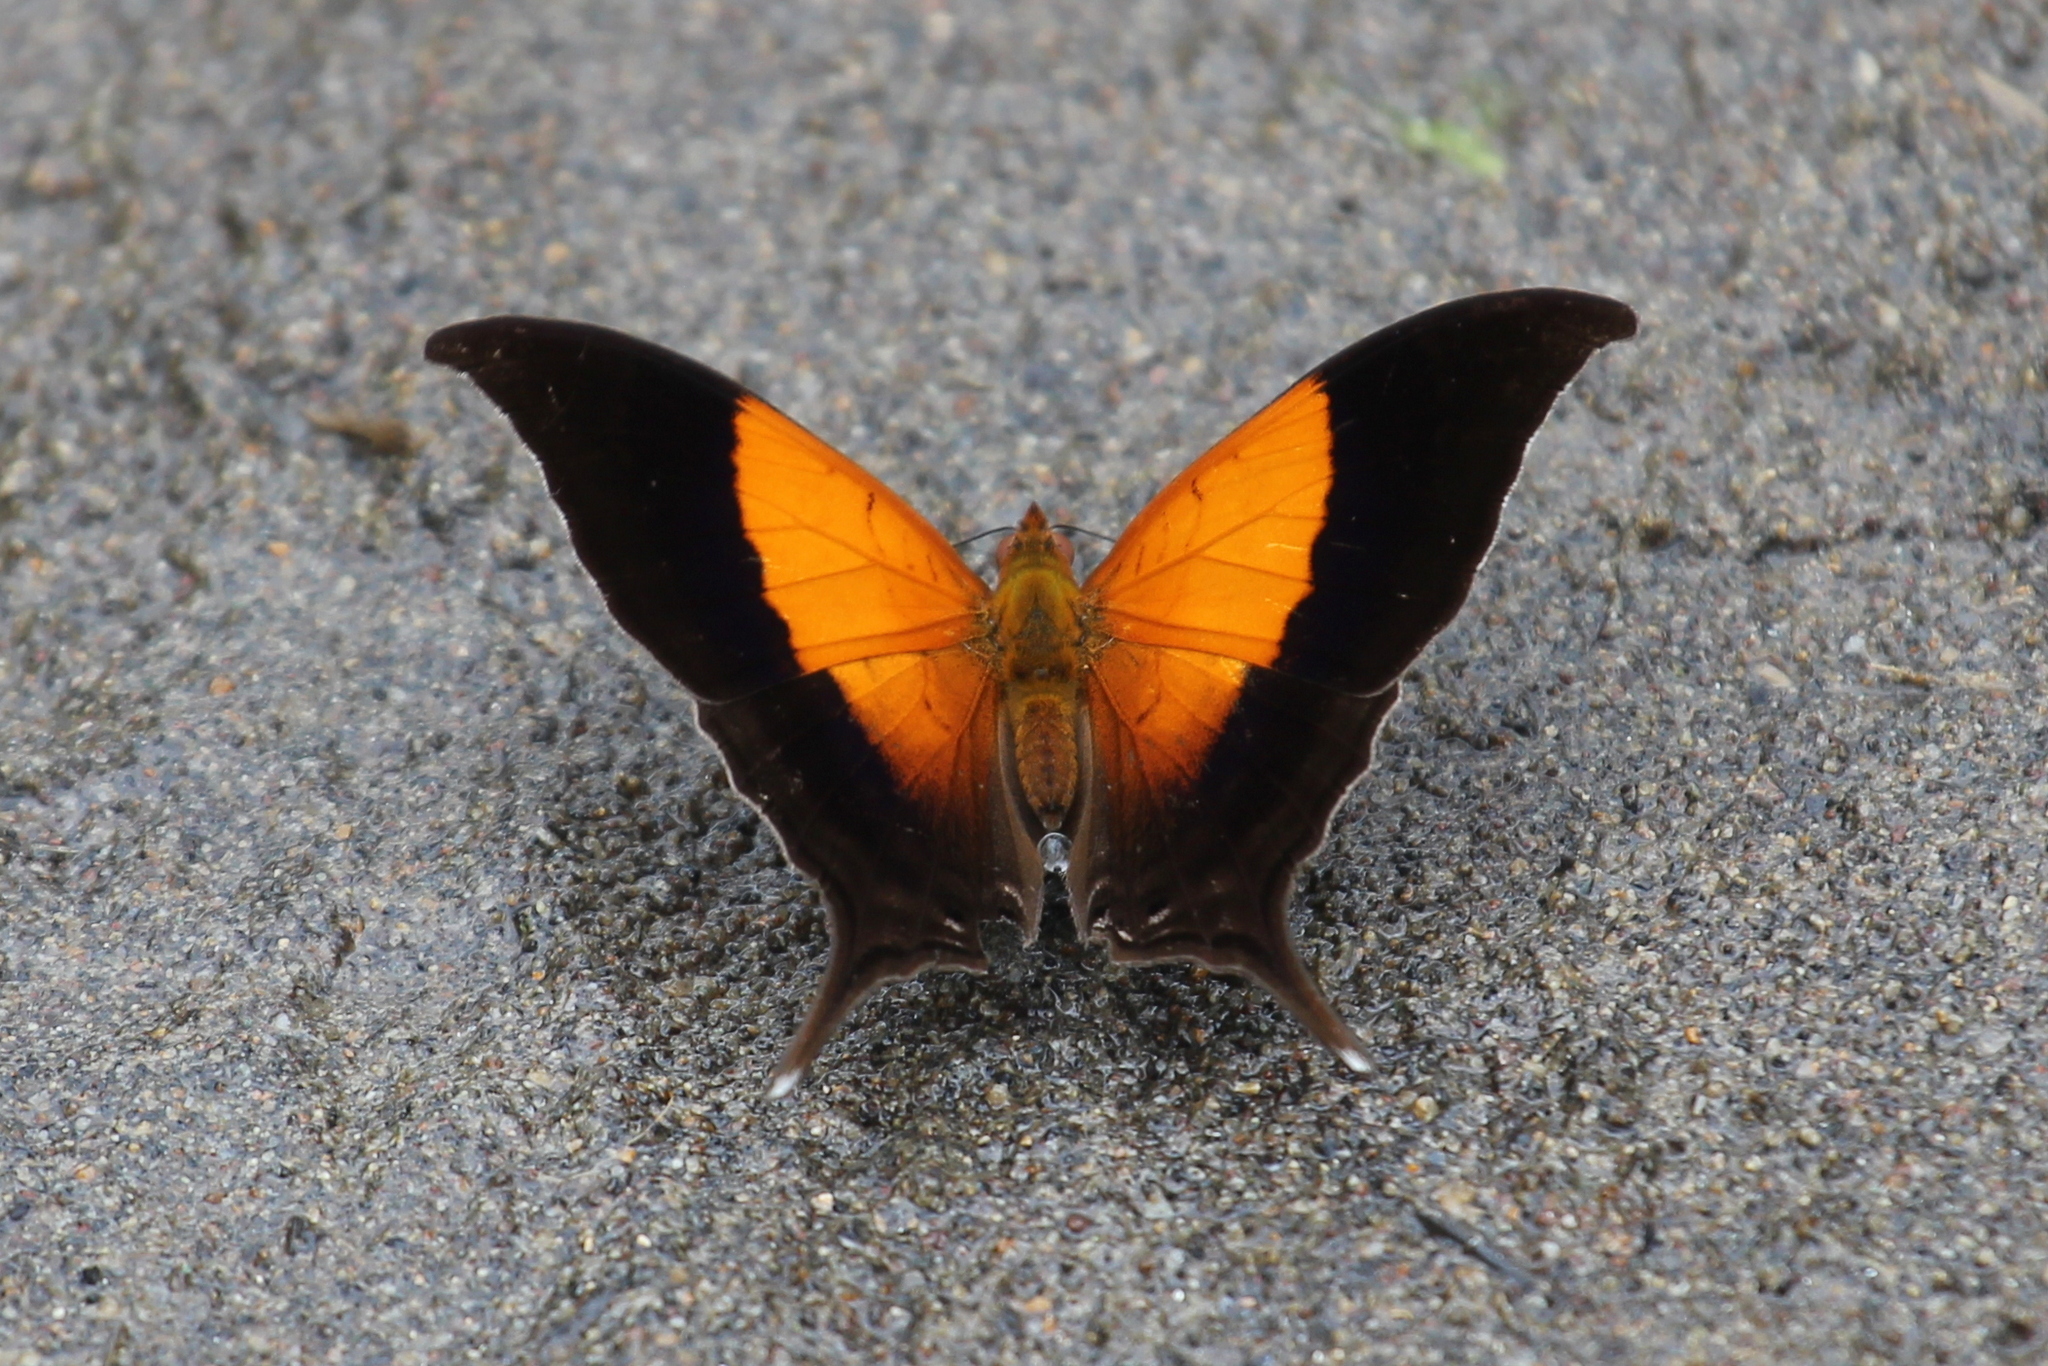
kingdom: Animalia
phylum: Arthropoda
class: Insecta
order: Lepidoptera
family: Nymphalidae
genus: Marpesia
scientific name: Marpesia furcula
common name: Sunset daggerwing
